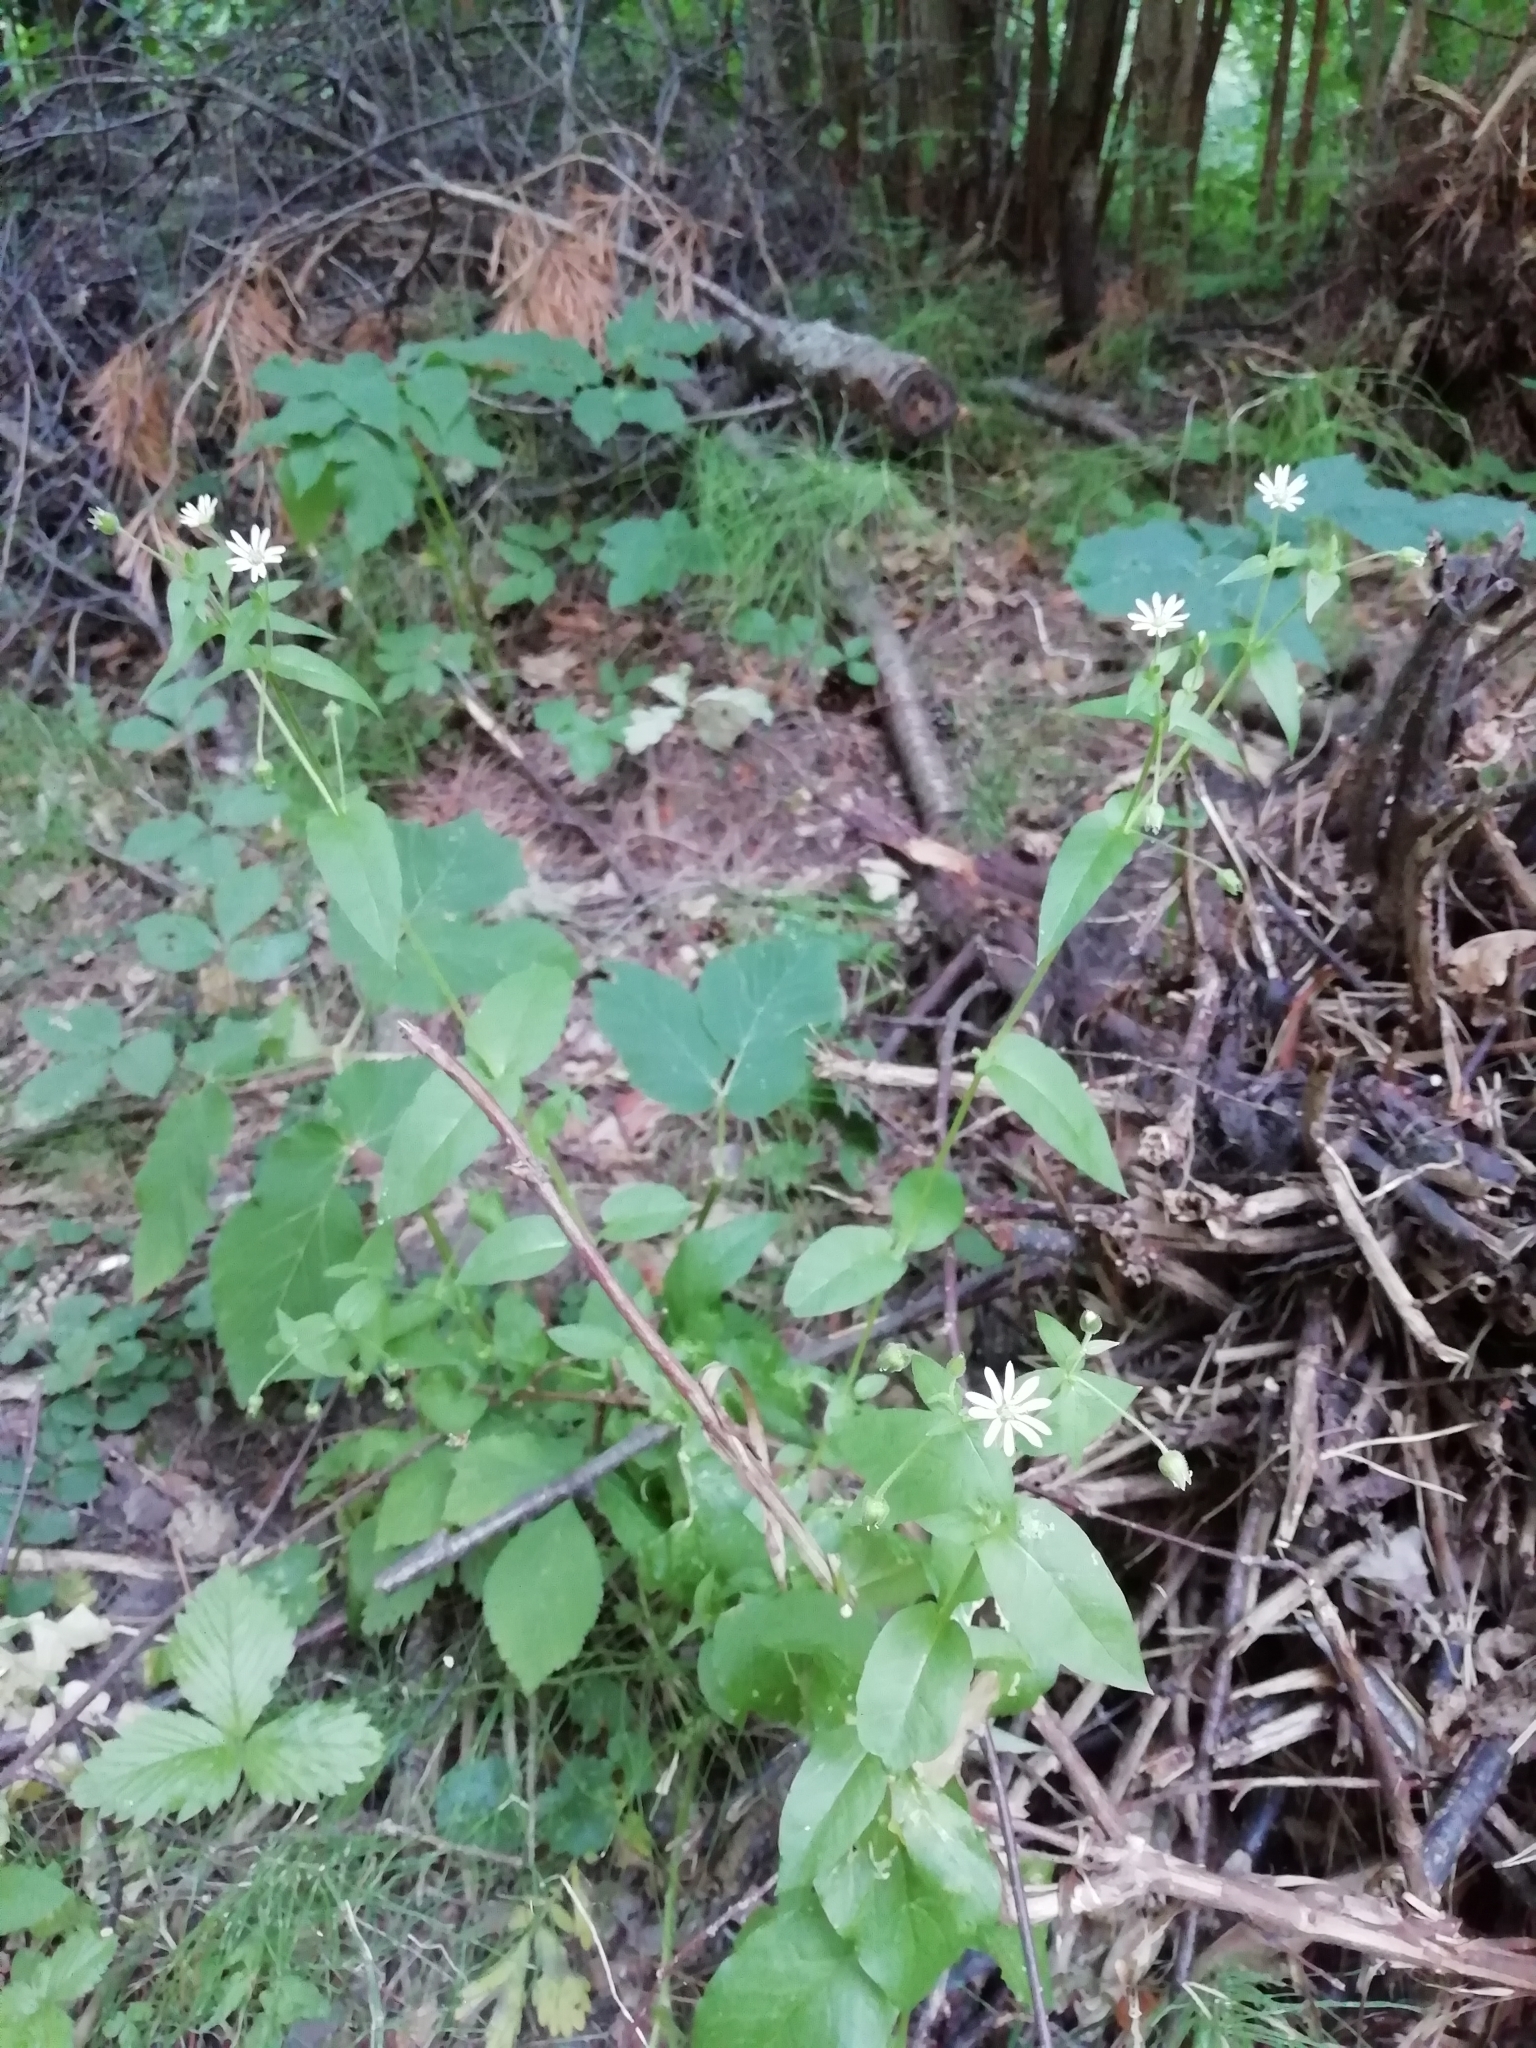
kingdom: Plantae
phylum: Tracheophyta
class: Magnoliopsida
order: Caryophyllales
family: Caryophyllaceae
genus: Stellaria
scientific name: Stellaria aquatica
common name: Water chickweed
